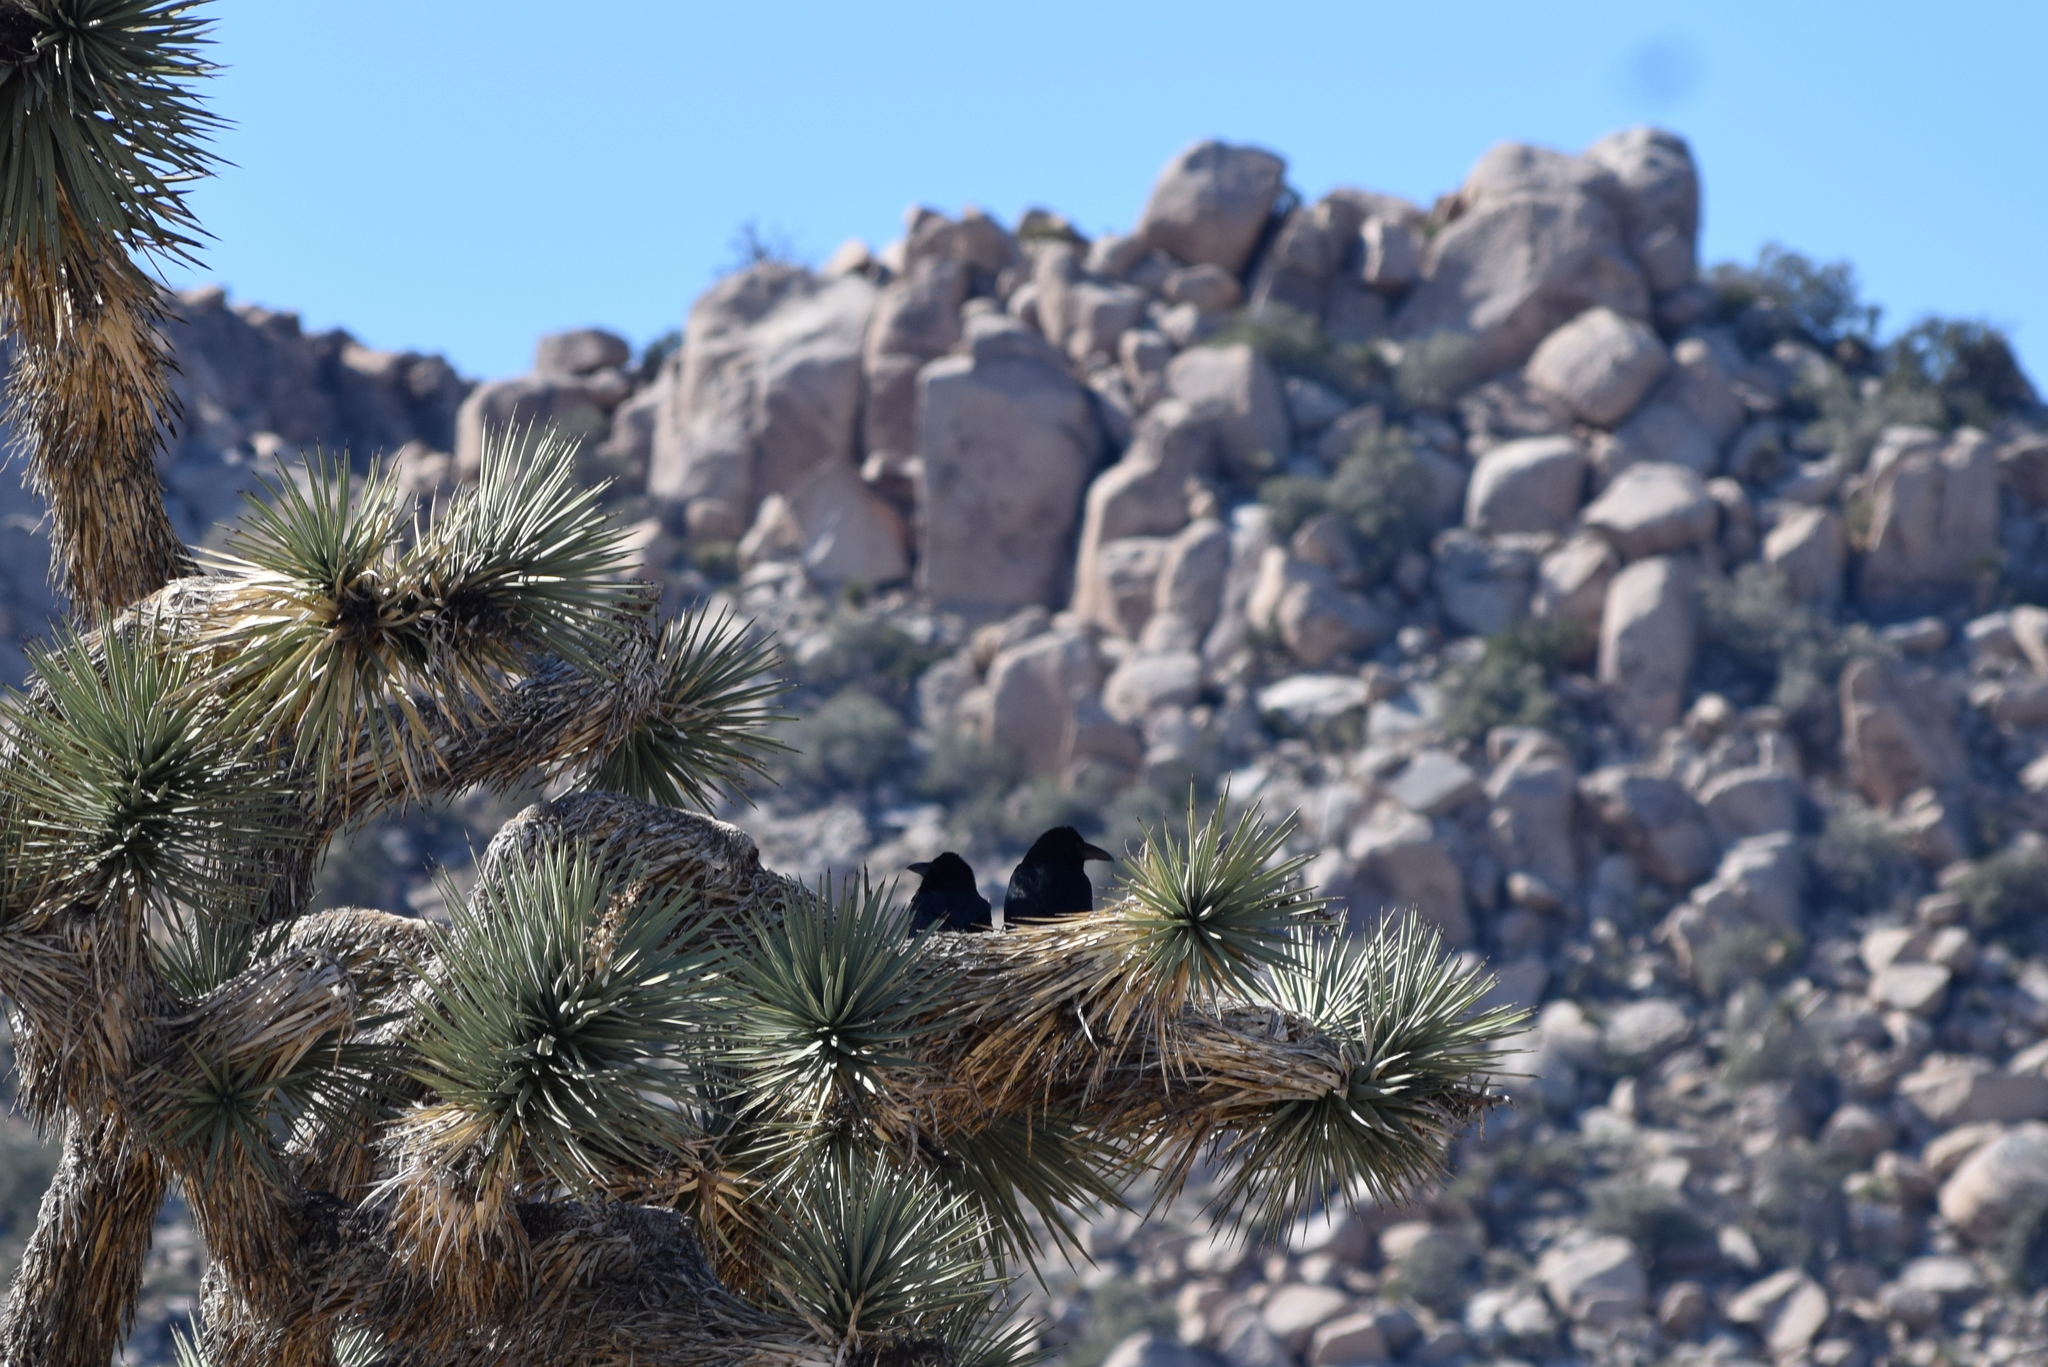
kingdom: Animalia
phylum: Chordata
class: Aves
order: Passeriformes
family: Corvidae
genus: Corvus
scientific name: Corvus corax
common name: Common raven
